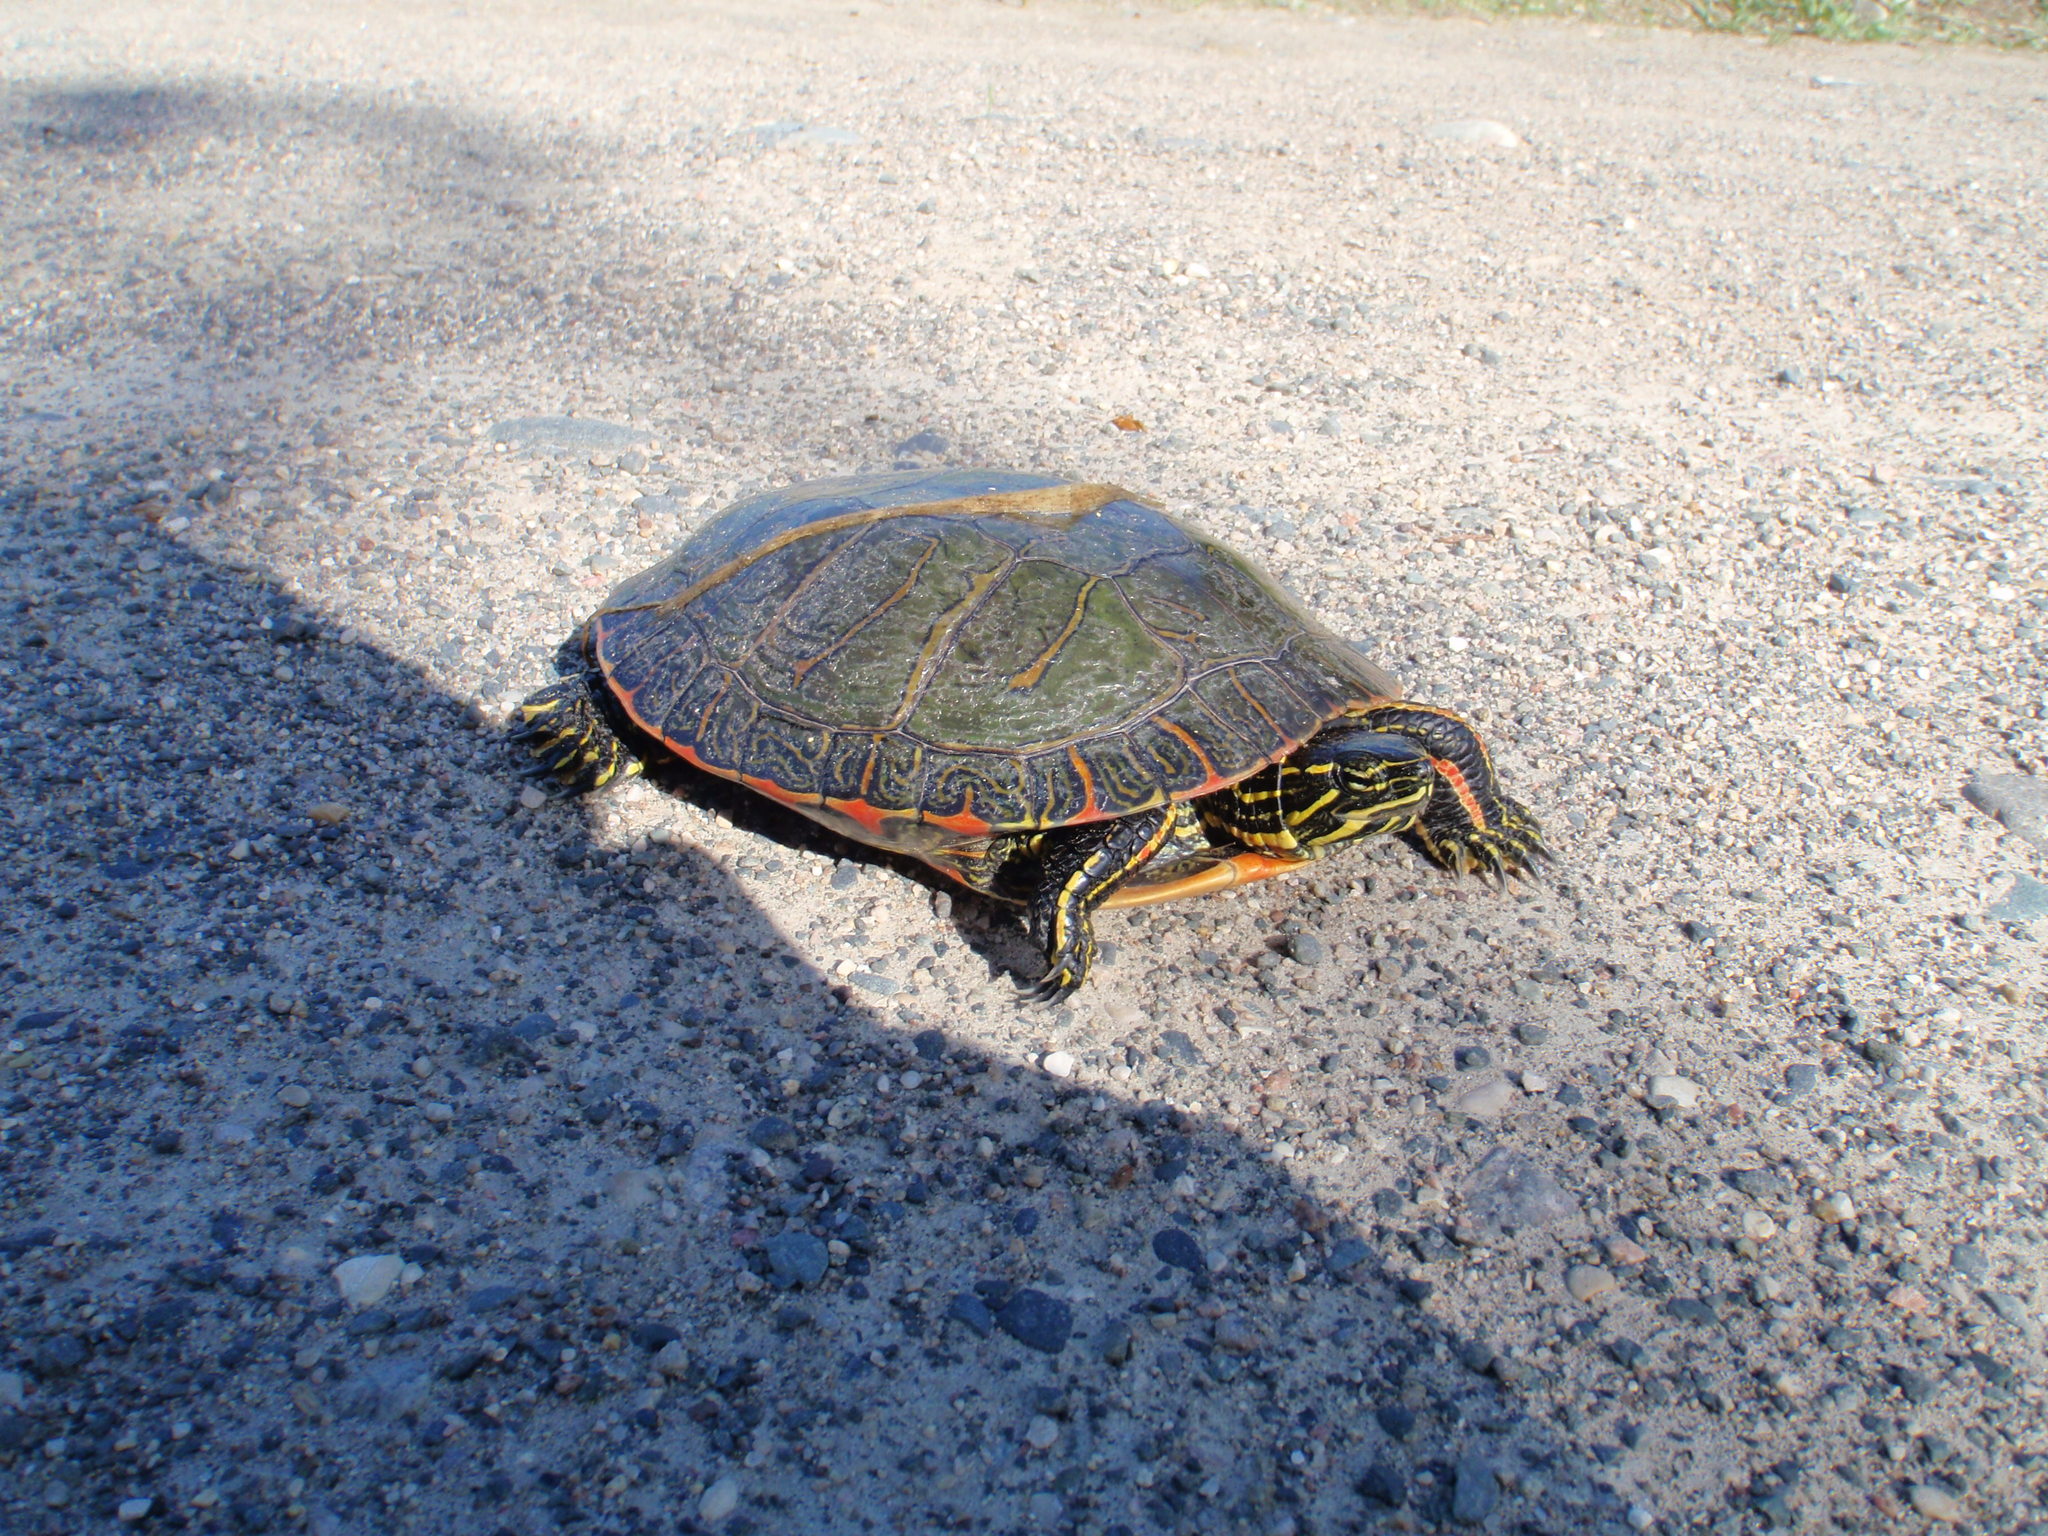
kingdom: Animalia
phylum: Chordata
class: Testudines
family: Emydidae
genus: Chrysemys
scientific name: Chrysemys picta
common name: Painted turtle
